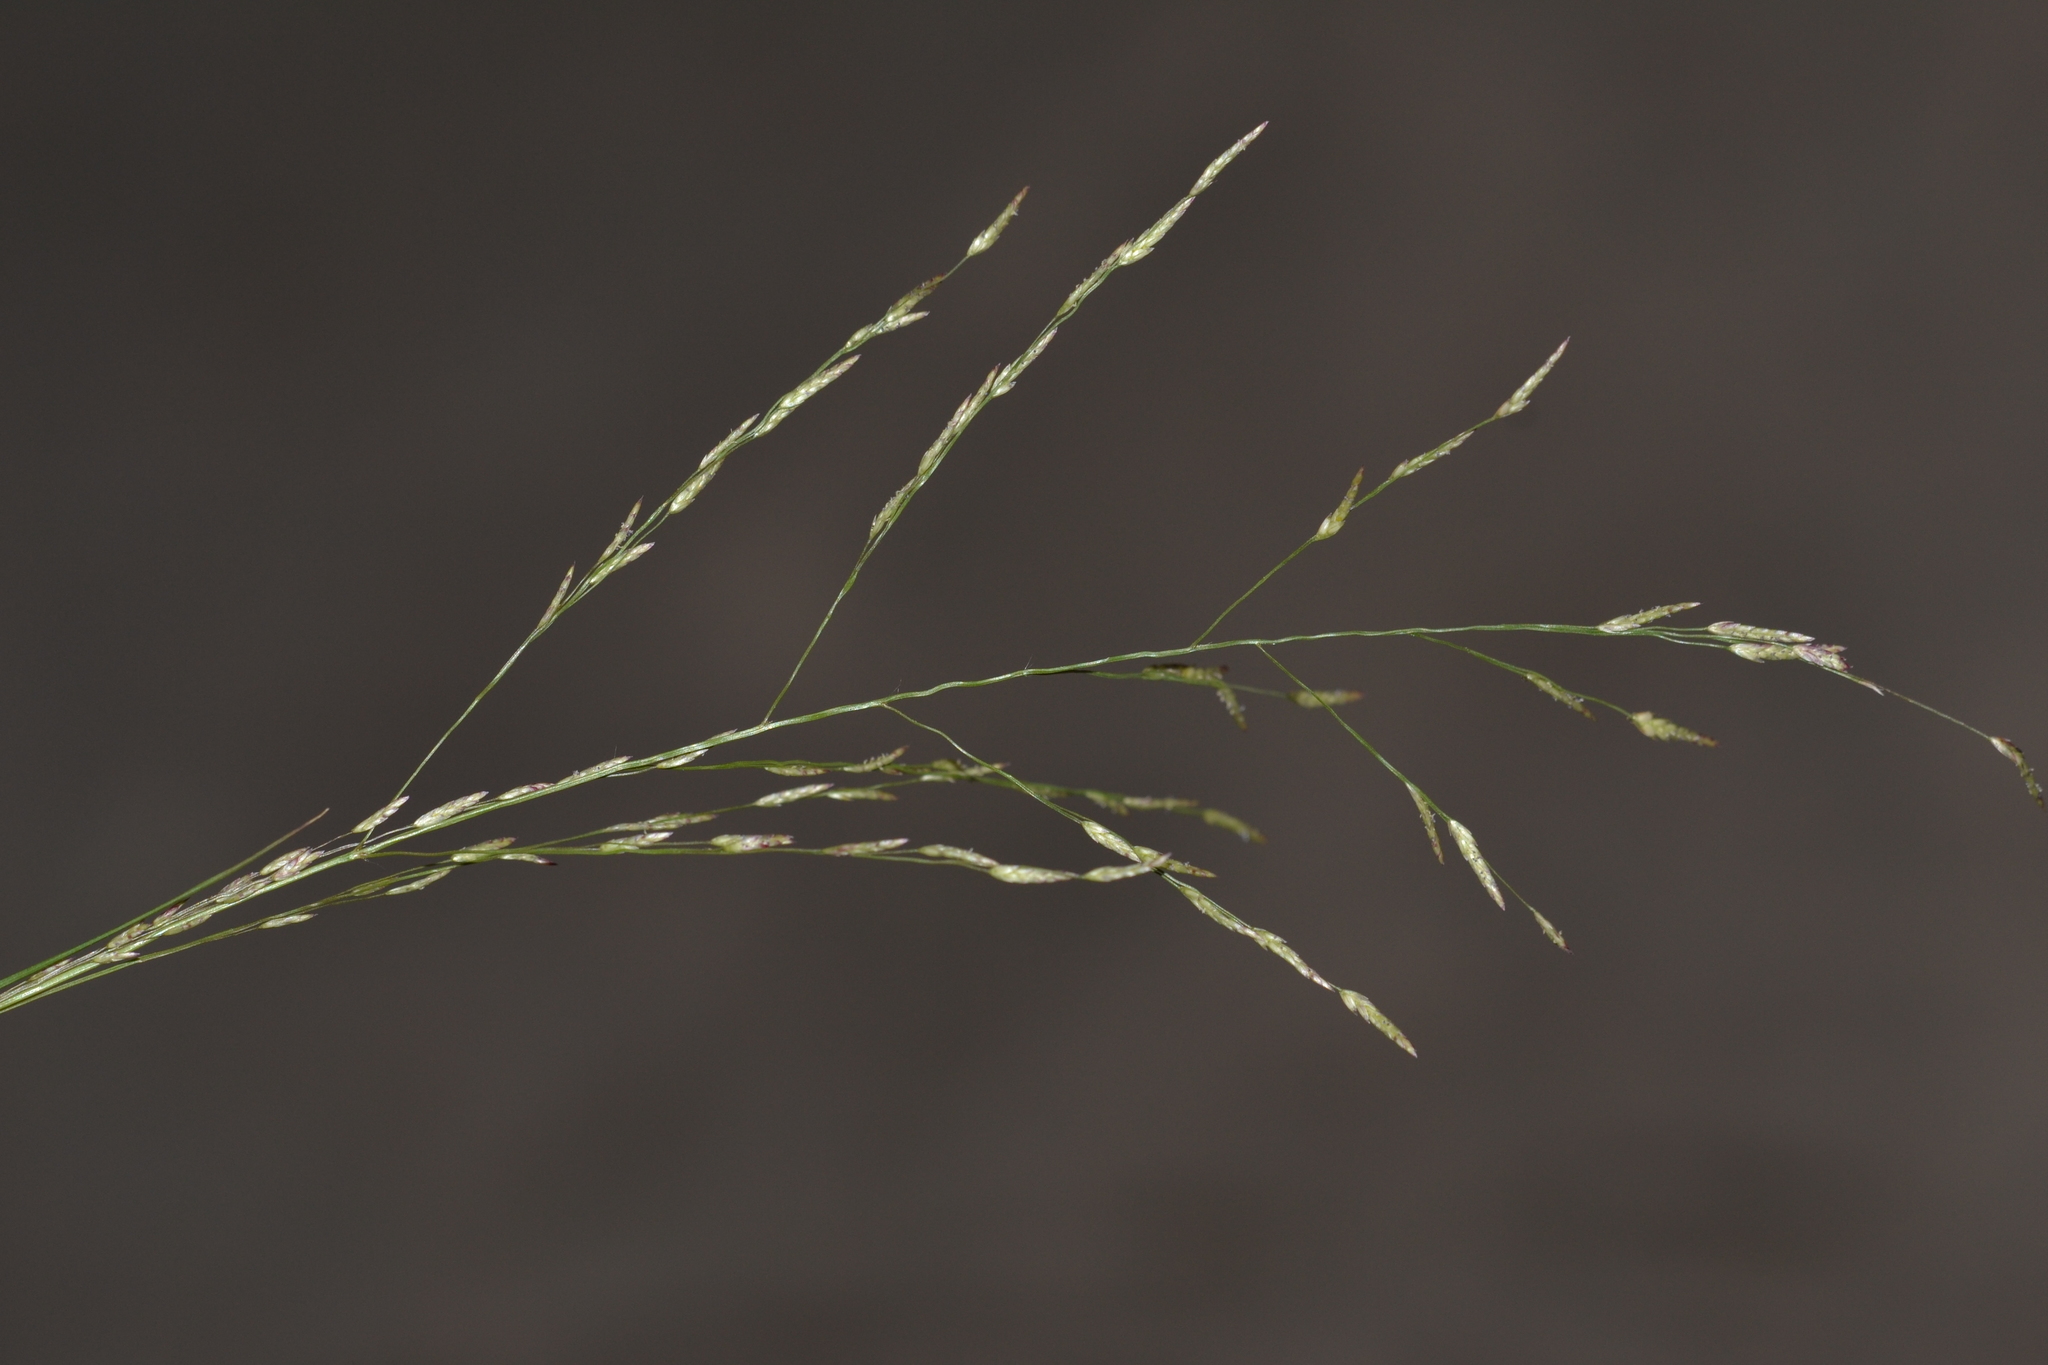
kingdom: Plantae
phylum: Tracheophyta
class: Liliopsida
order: Poales
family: Poaceae
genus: Eragrostis
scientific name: Eragrostis pectinacea
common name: Tufted lovegrass
